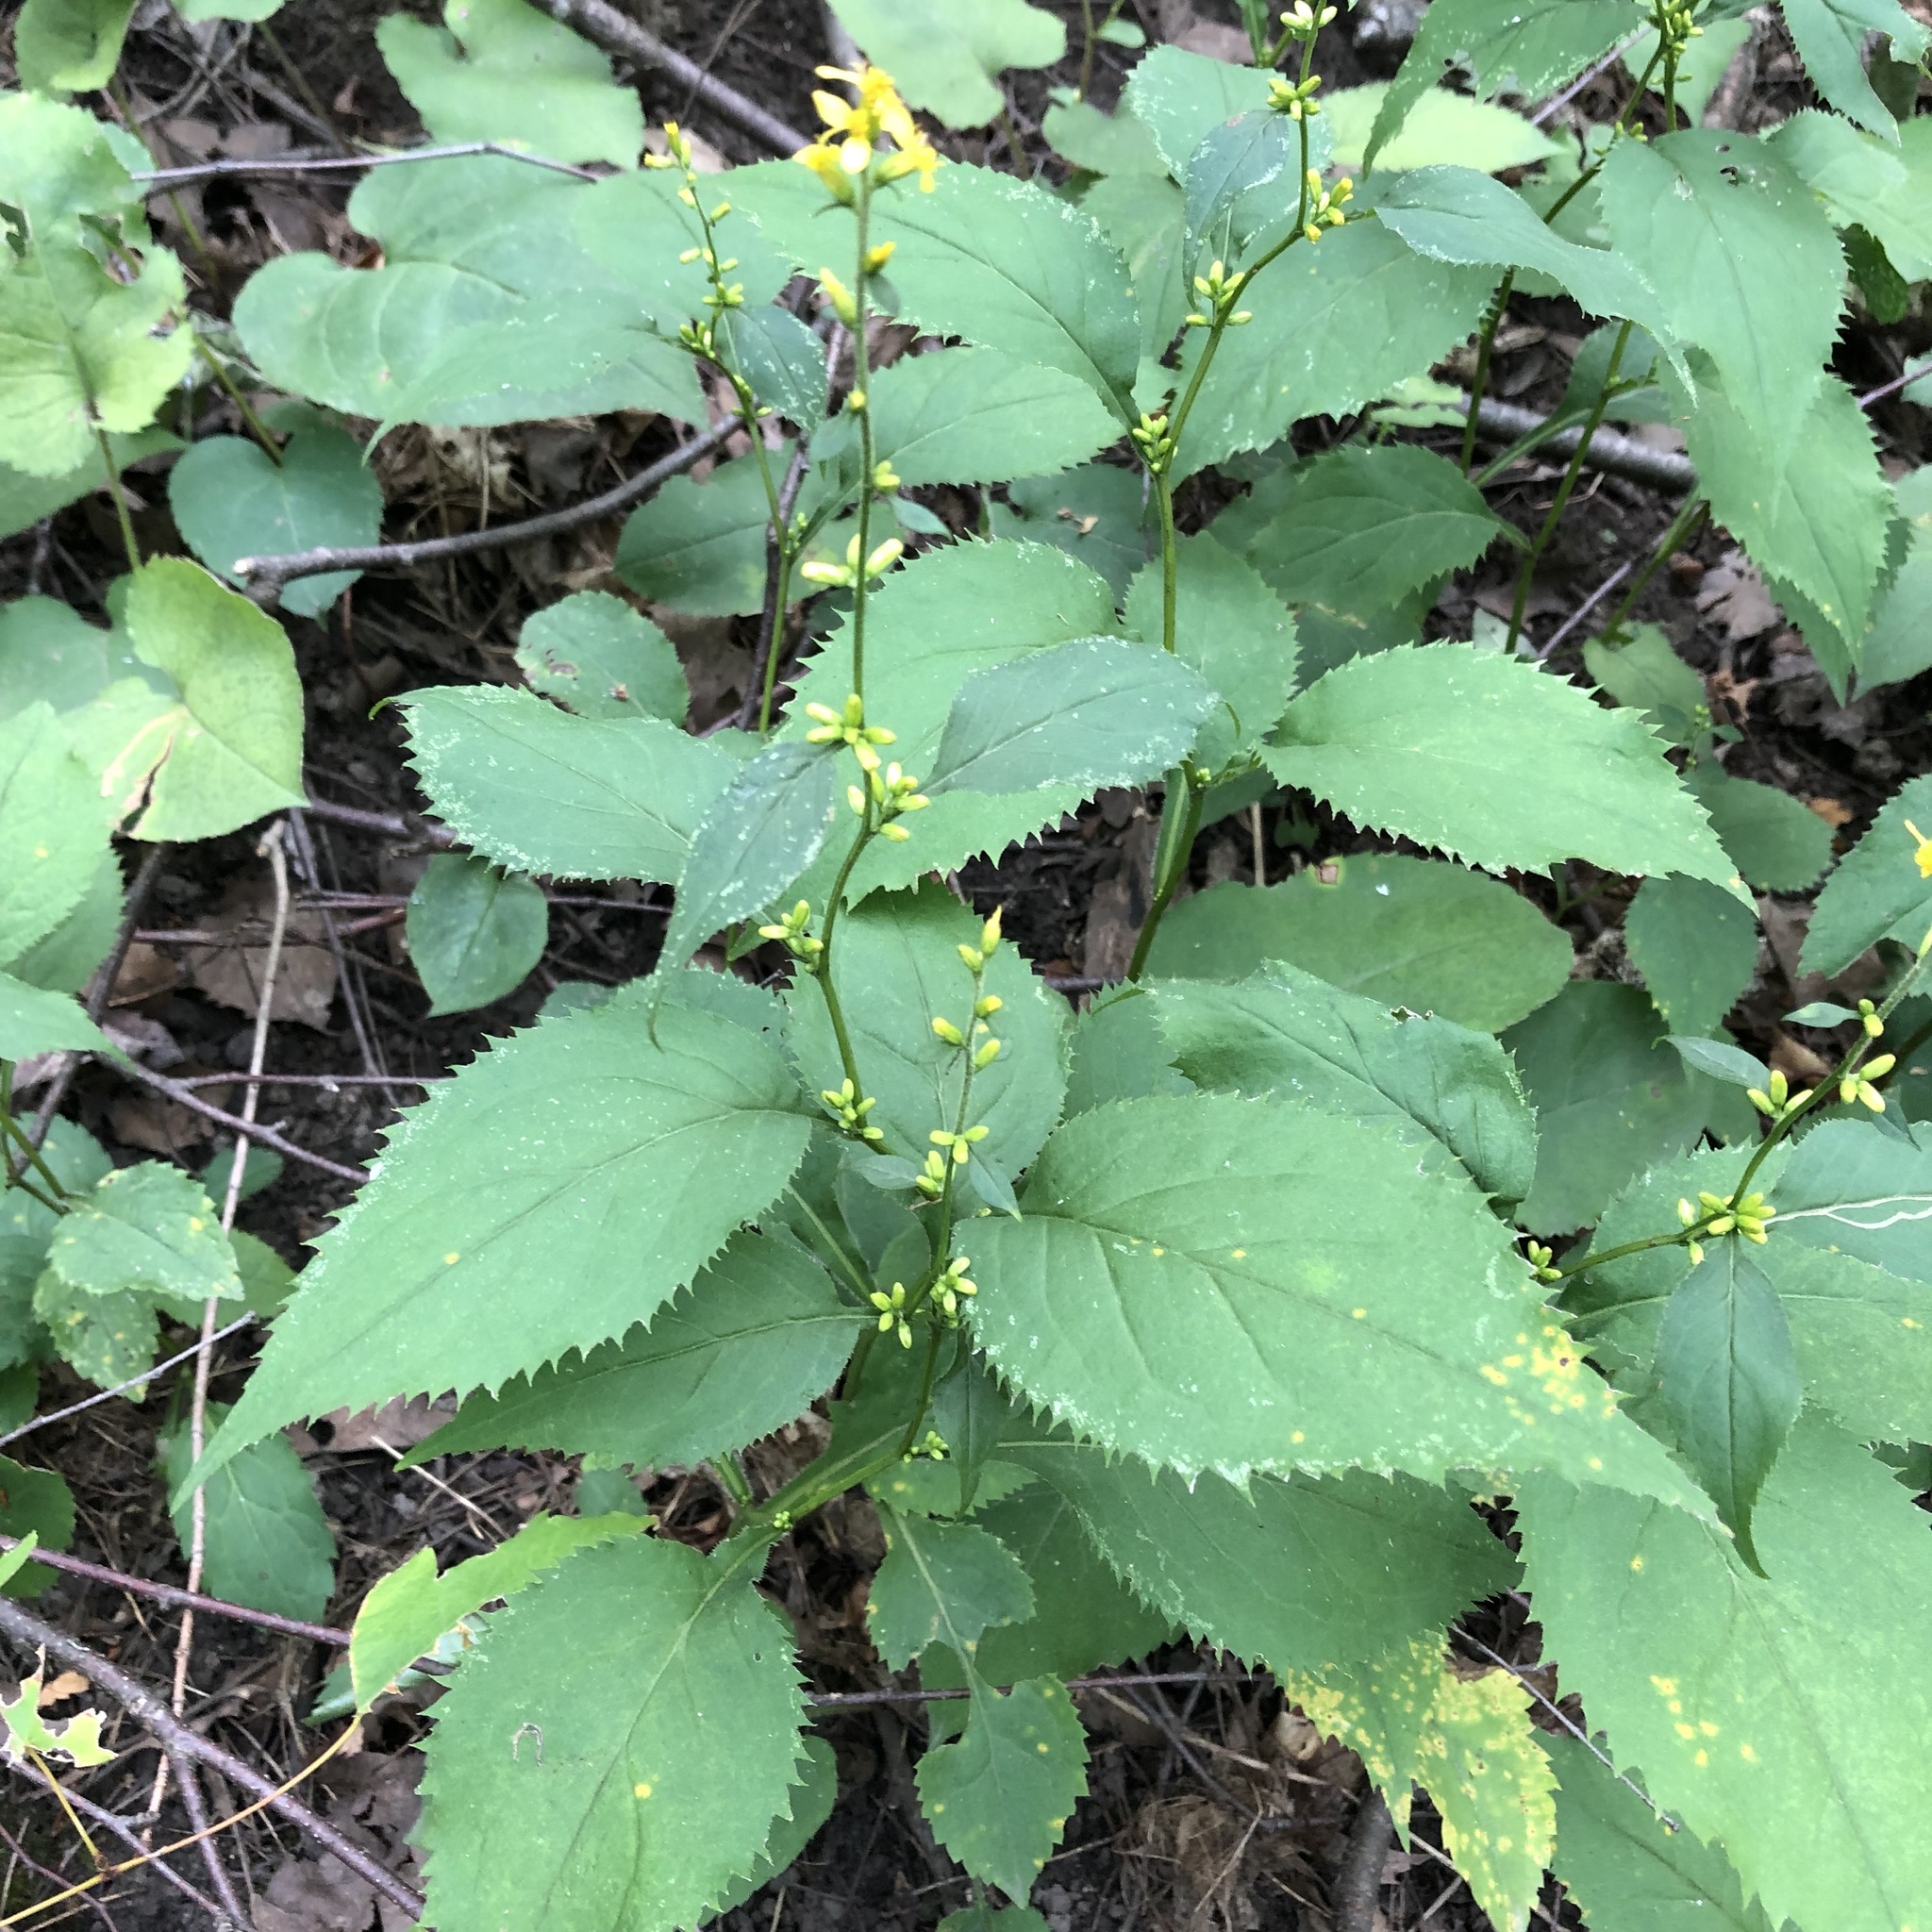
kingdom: Plantae
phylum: Tracheophyta
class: Magnoliopsida
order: Asterales
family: Asteraceae
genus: Solidago
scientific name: Solidago flexicaulis
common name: Zig-zag goldenrod
